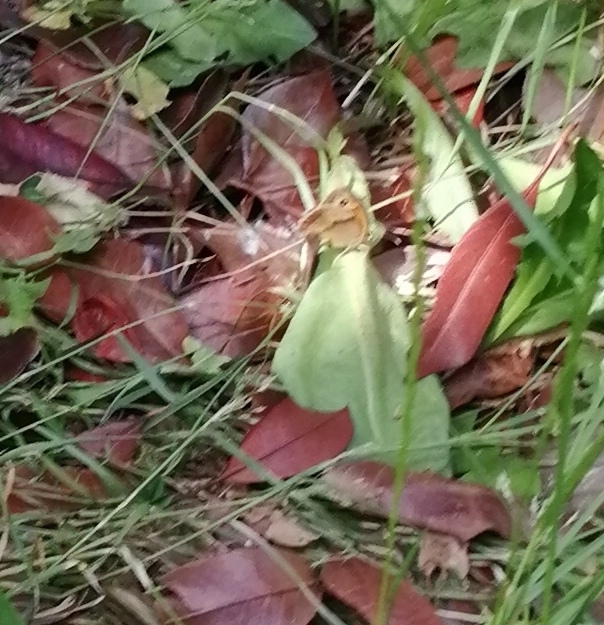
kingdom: Animalia
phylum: Arthropoda
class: Insecta
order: Lepidoptera
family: Nymphalidae
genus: Maniola
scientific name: Maniola jurtina
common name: Meadow brown
